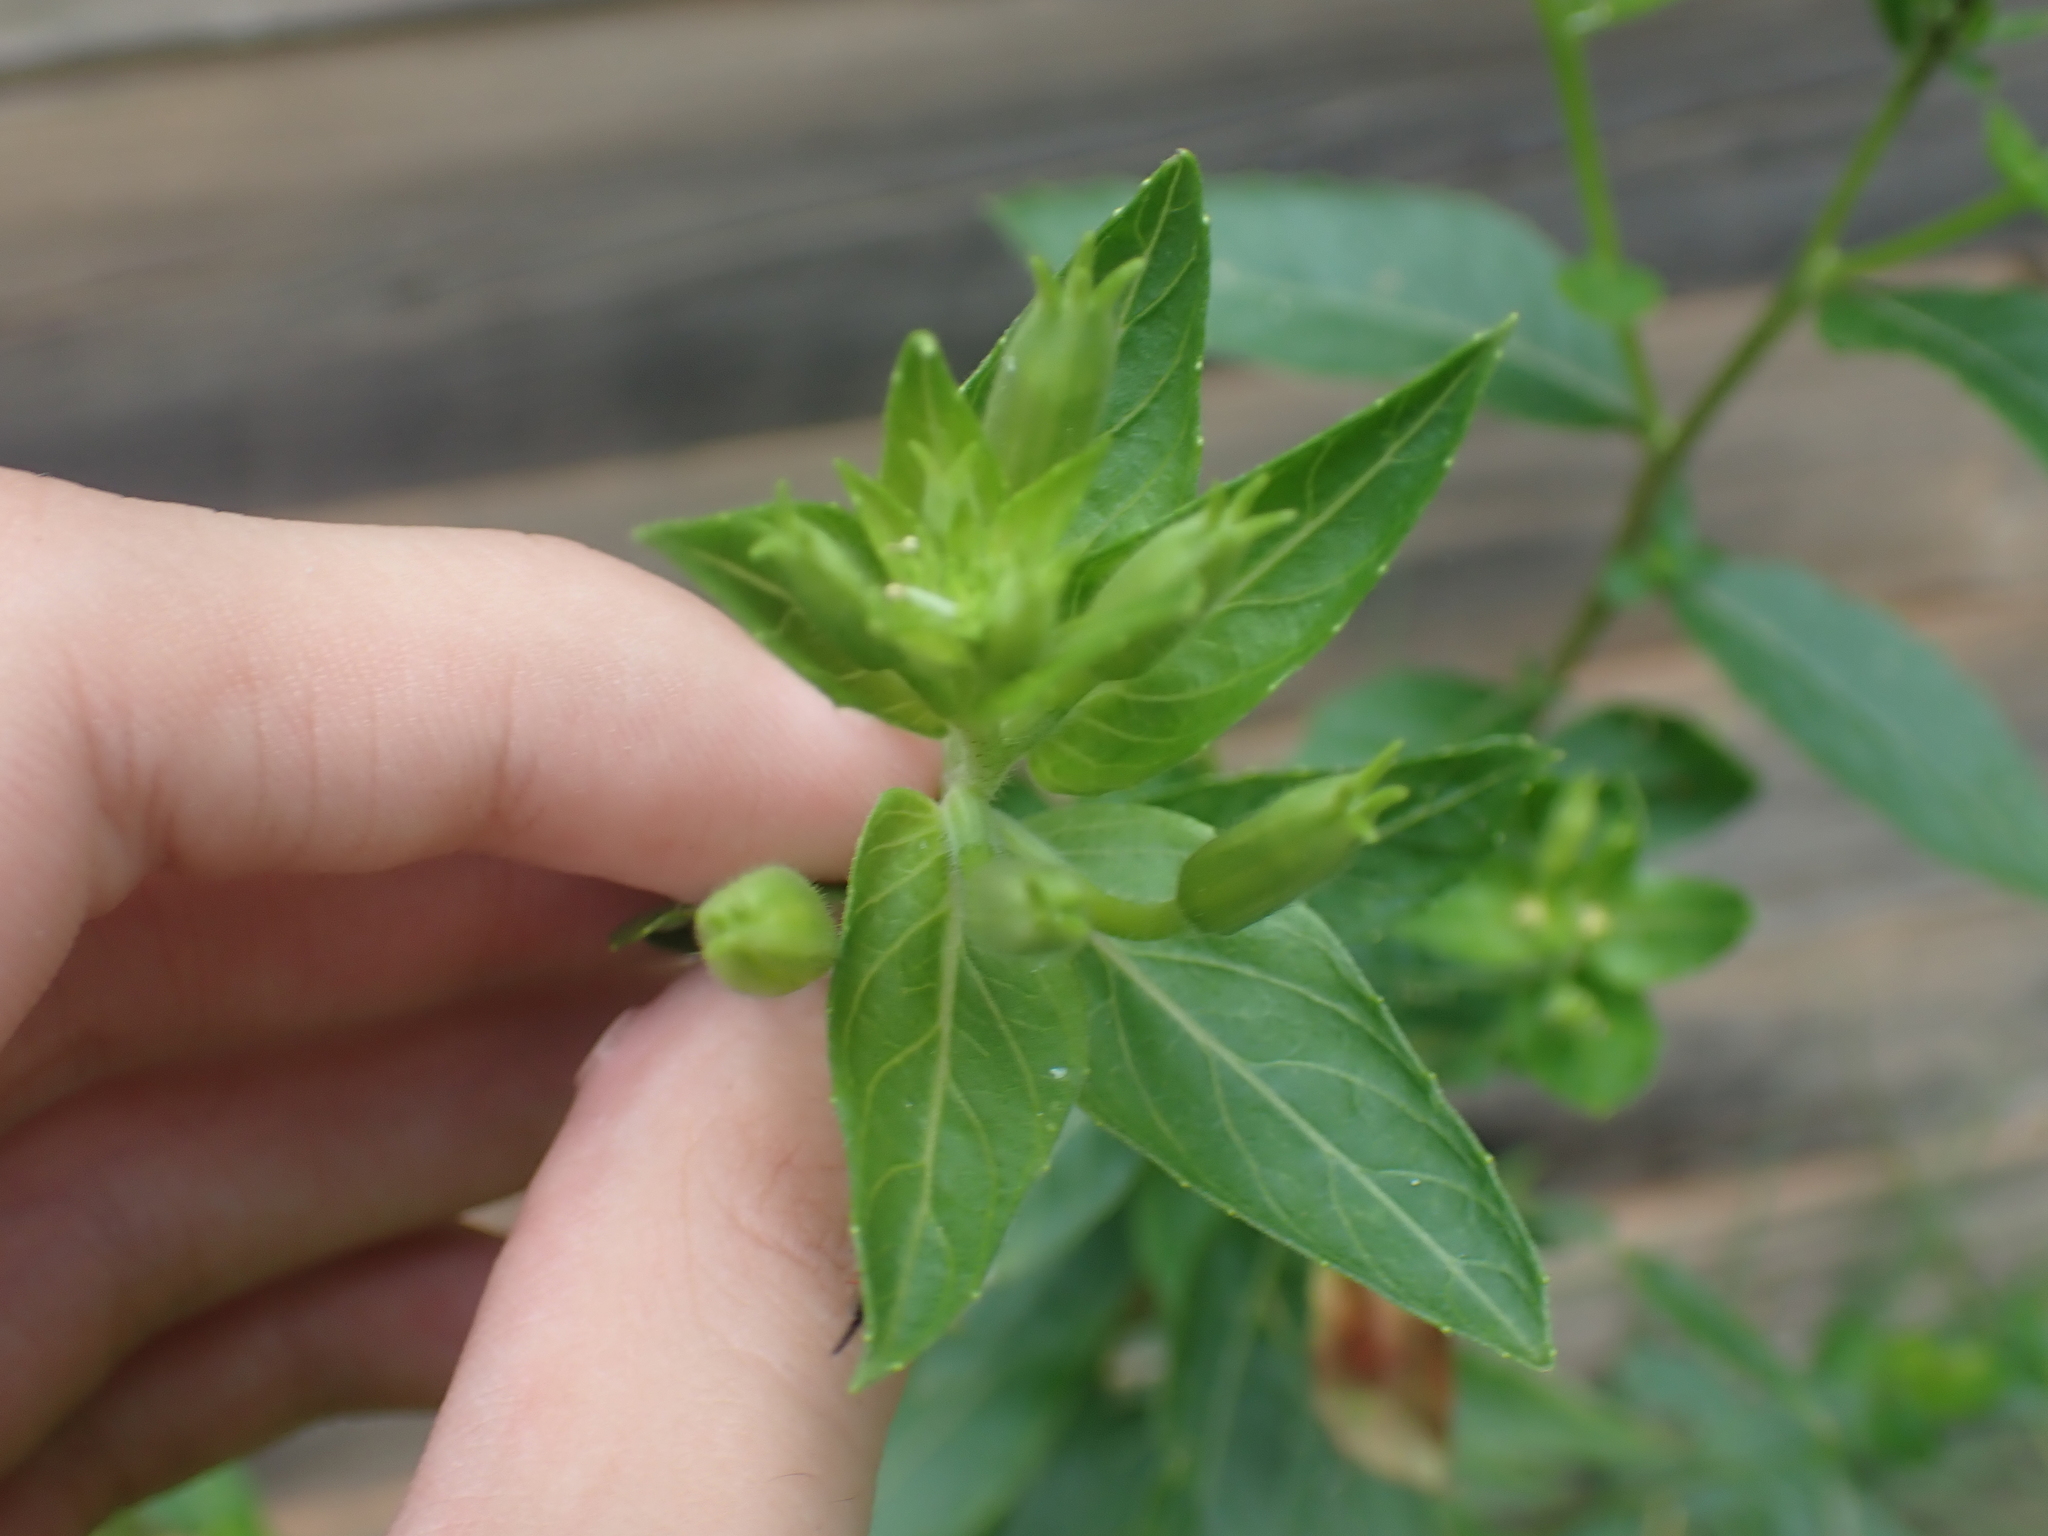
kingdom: Plantae
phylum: Tracheophyta
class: Magnoliopsida
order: Myrtales
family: Onagraceae
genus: Oenothera
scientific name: Oenothera biennis
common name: Common evening-primrose
